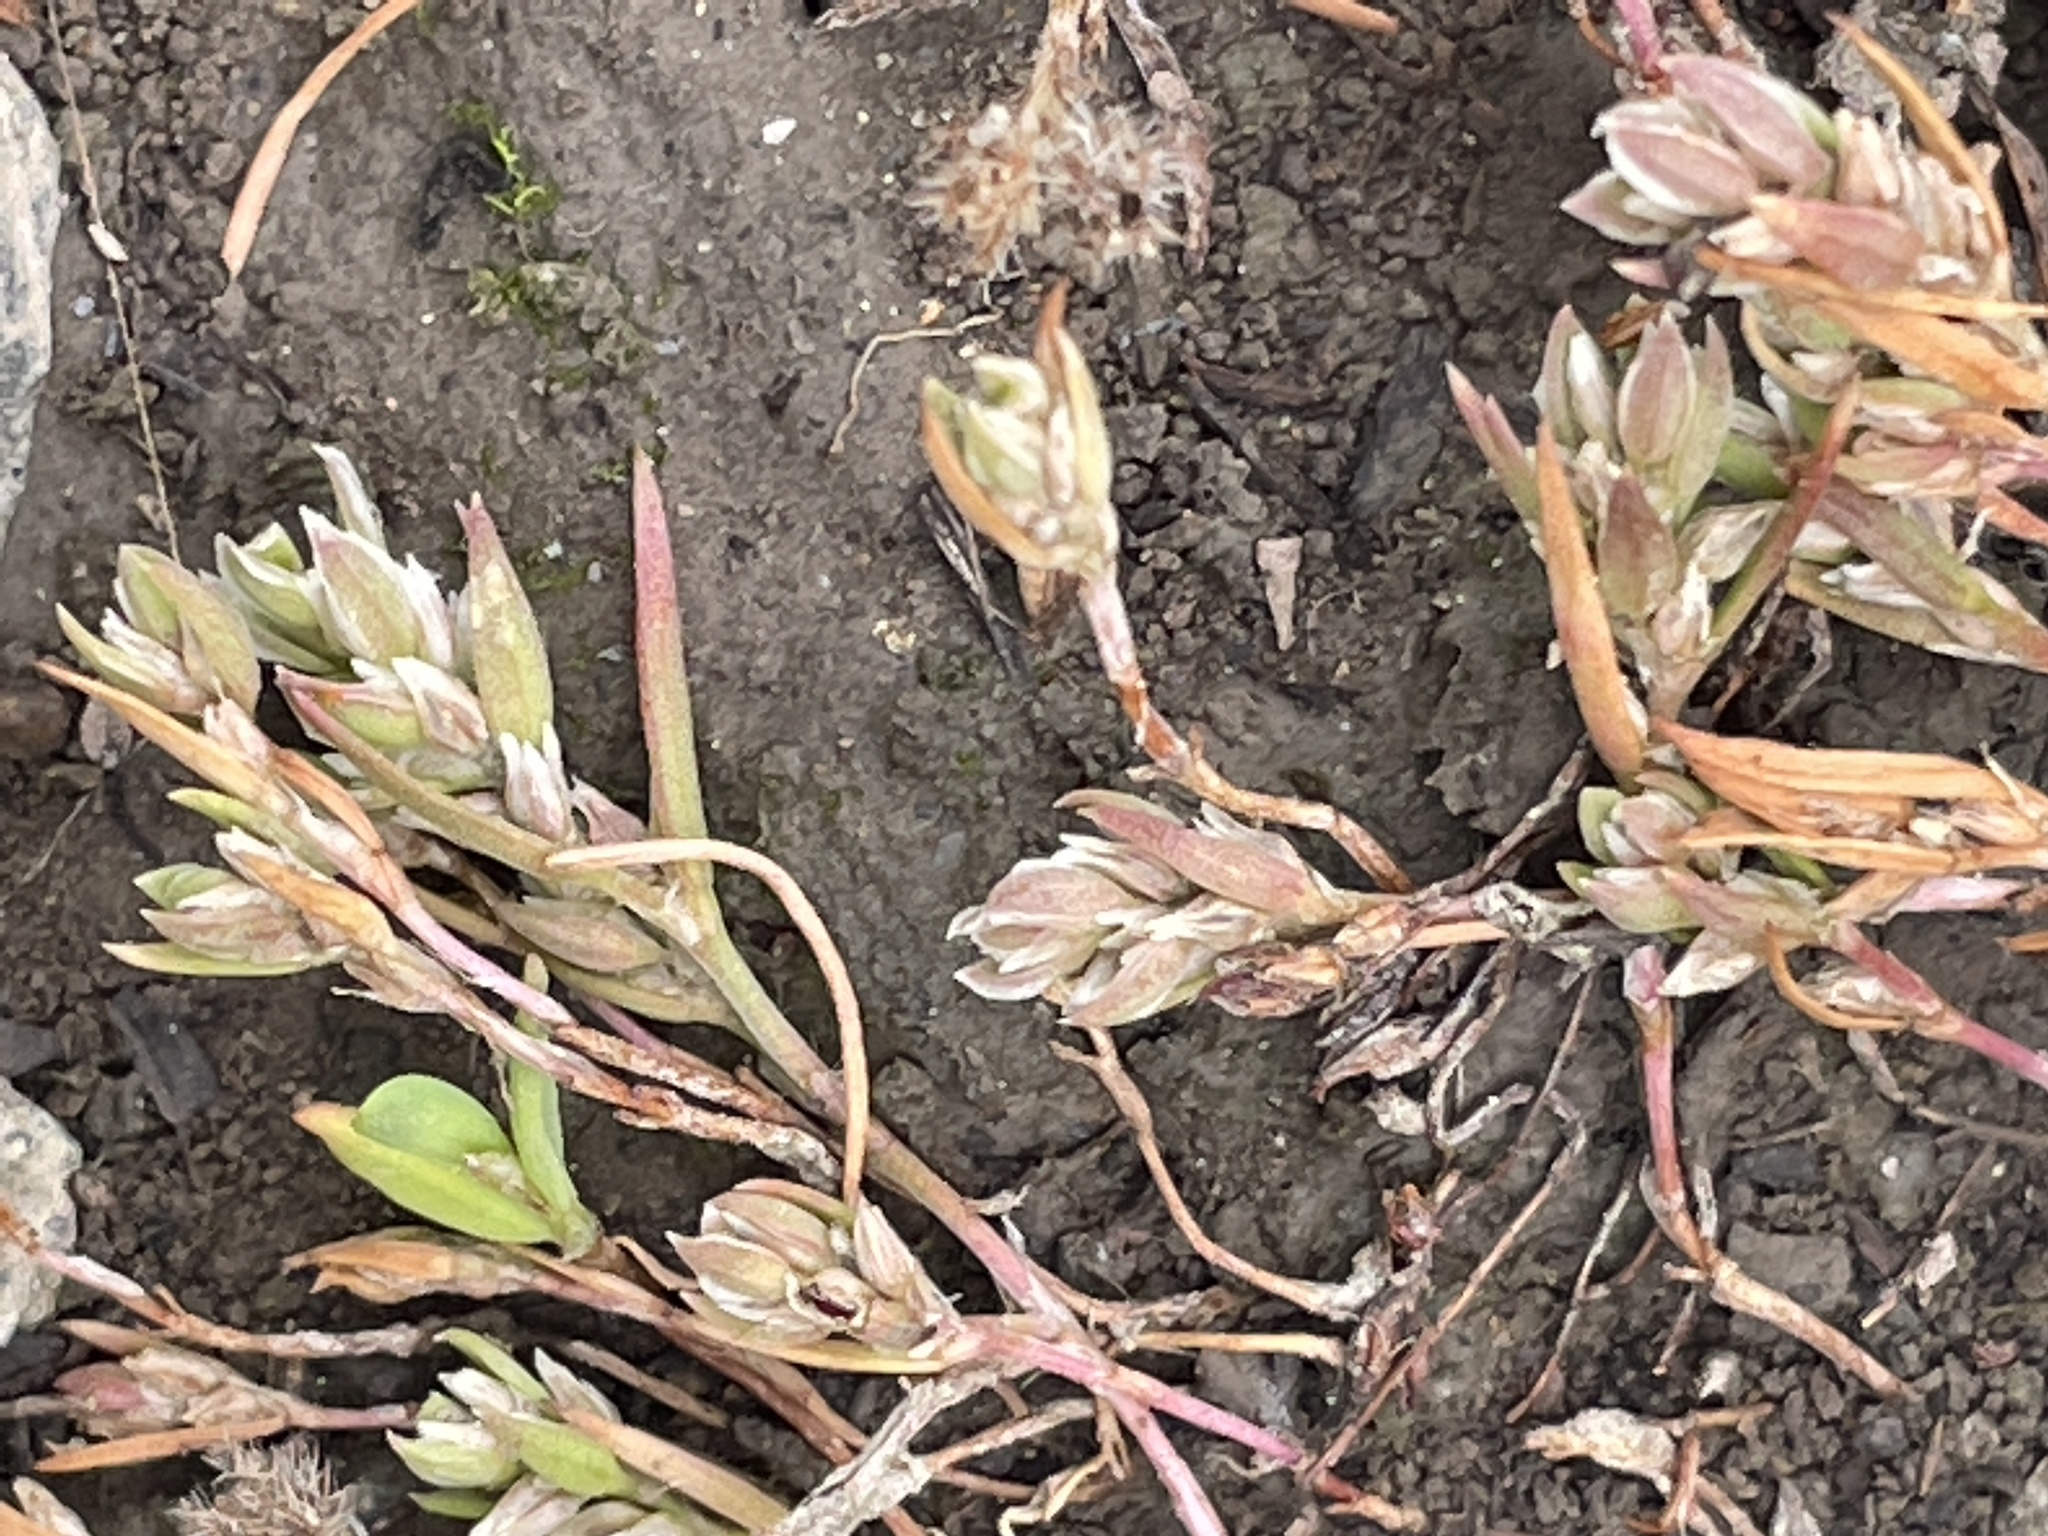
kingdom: Plantae
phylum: Tracheophyta
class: Magnoliopsida
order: Caryophyllales
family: Polygonaceae
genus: Polygonum
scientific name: Polygonum kelloggii
